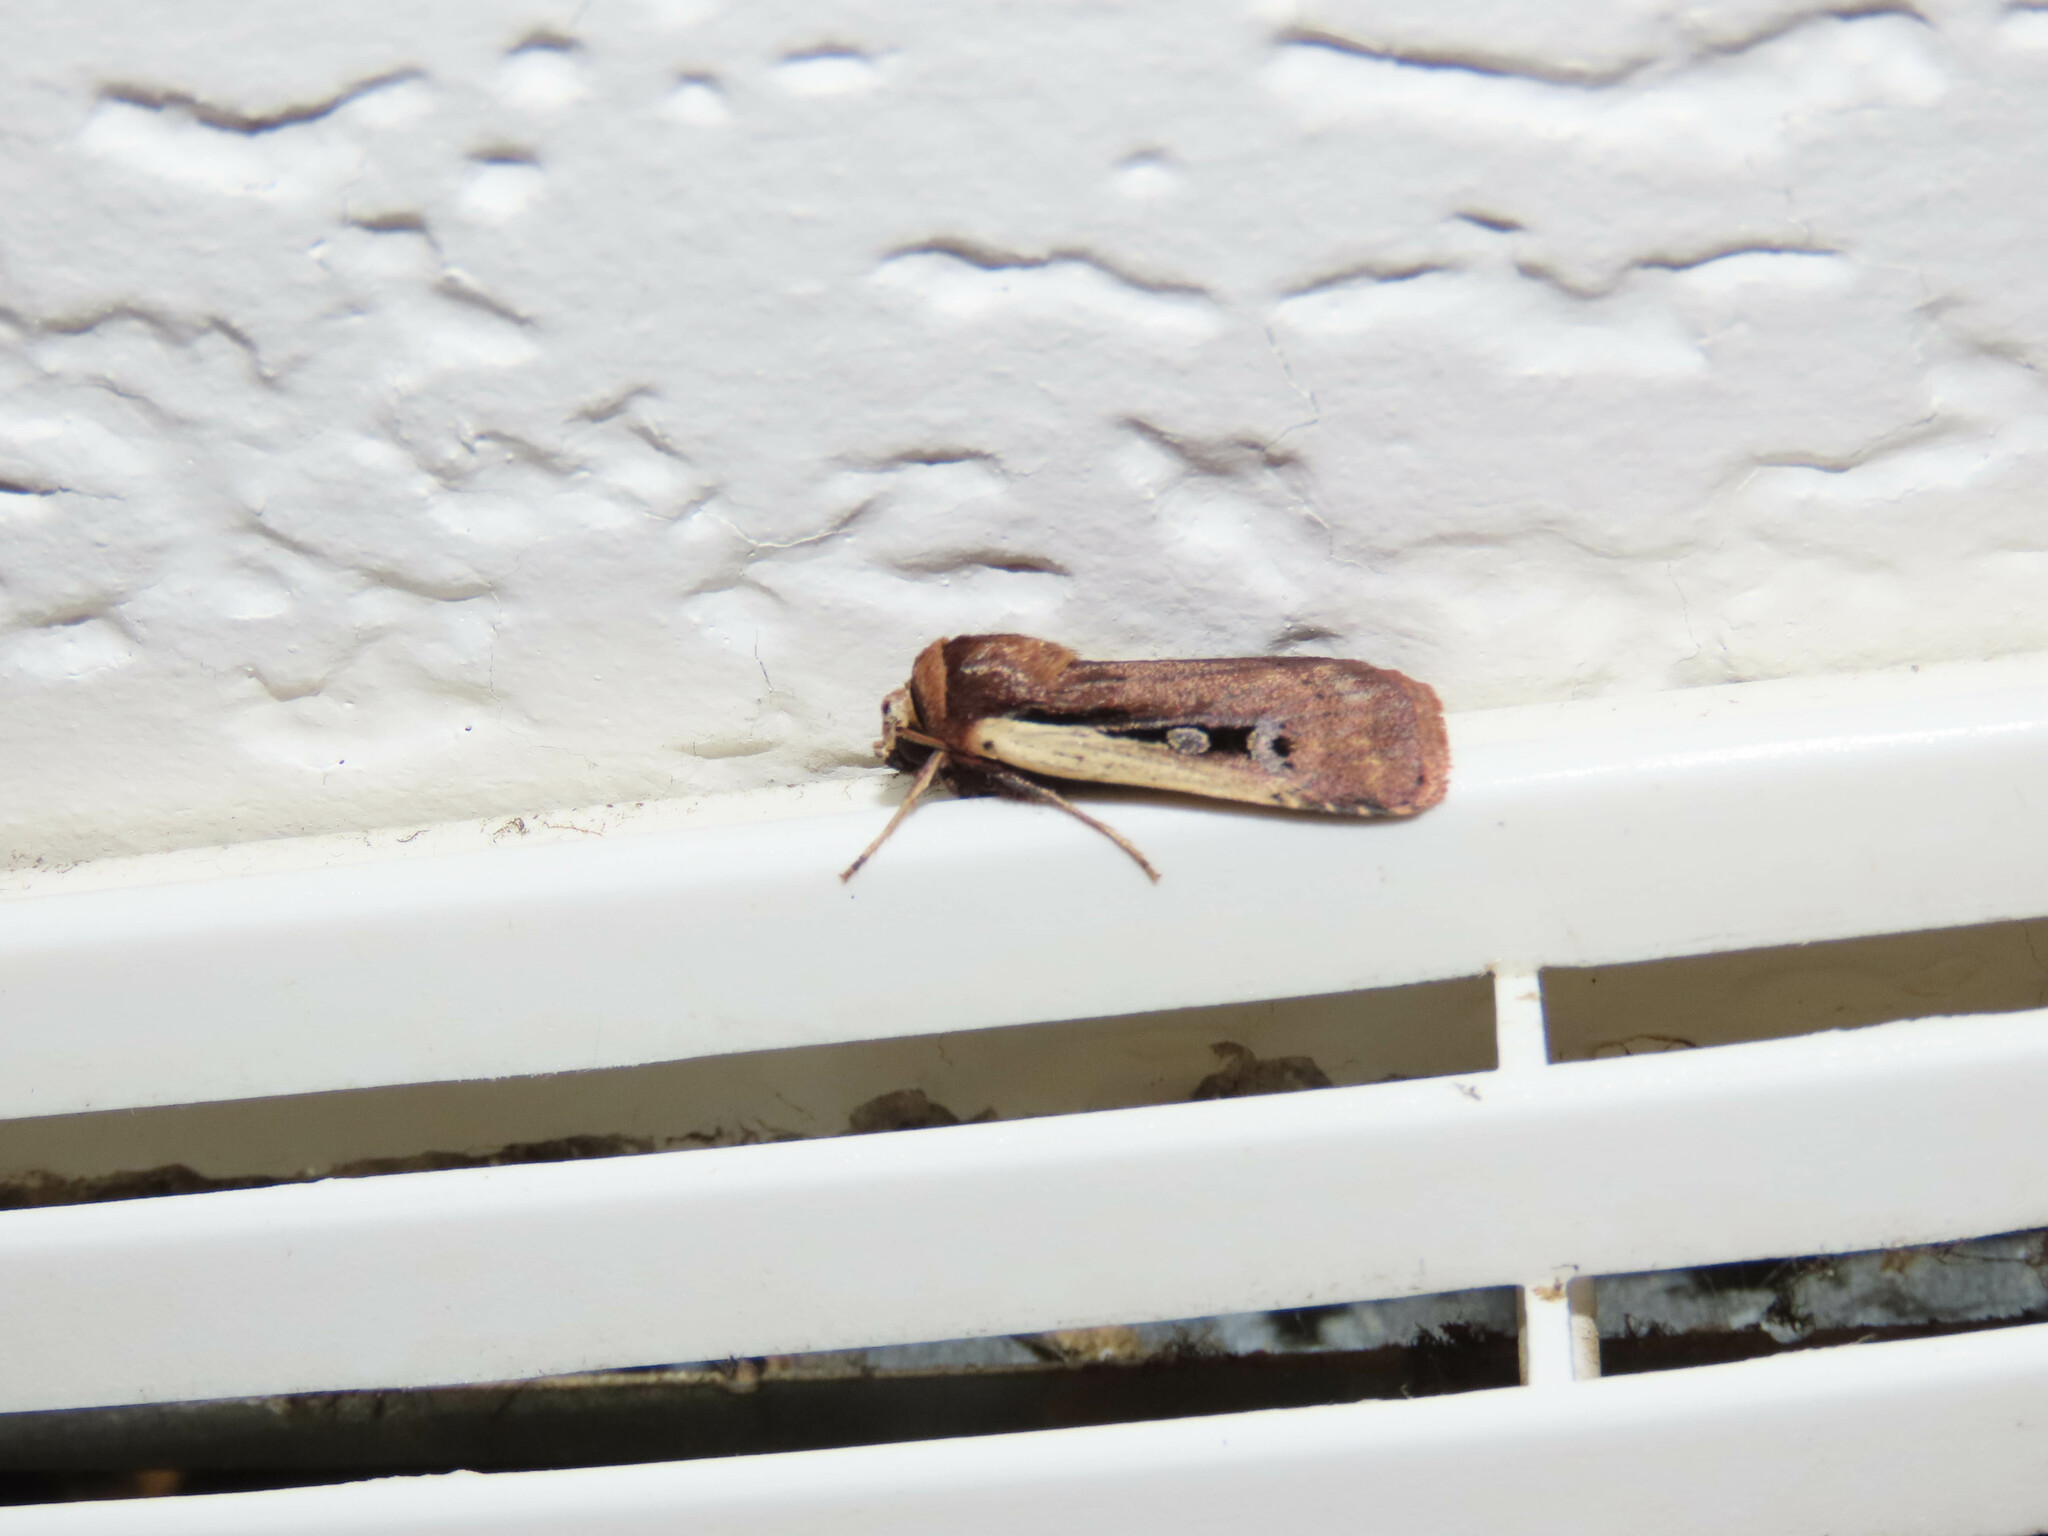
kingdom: Animalia
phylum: Arthropoda
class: Insecta
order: Lepidoptera
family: Noctuidae
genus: Ochropleura
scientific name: Ochropleura implecta
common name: Flame-shouldered dart
